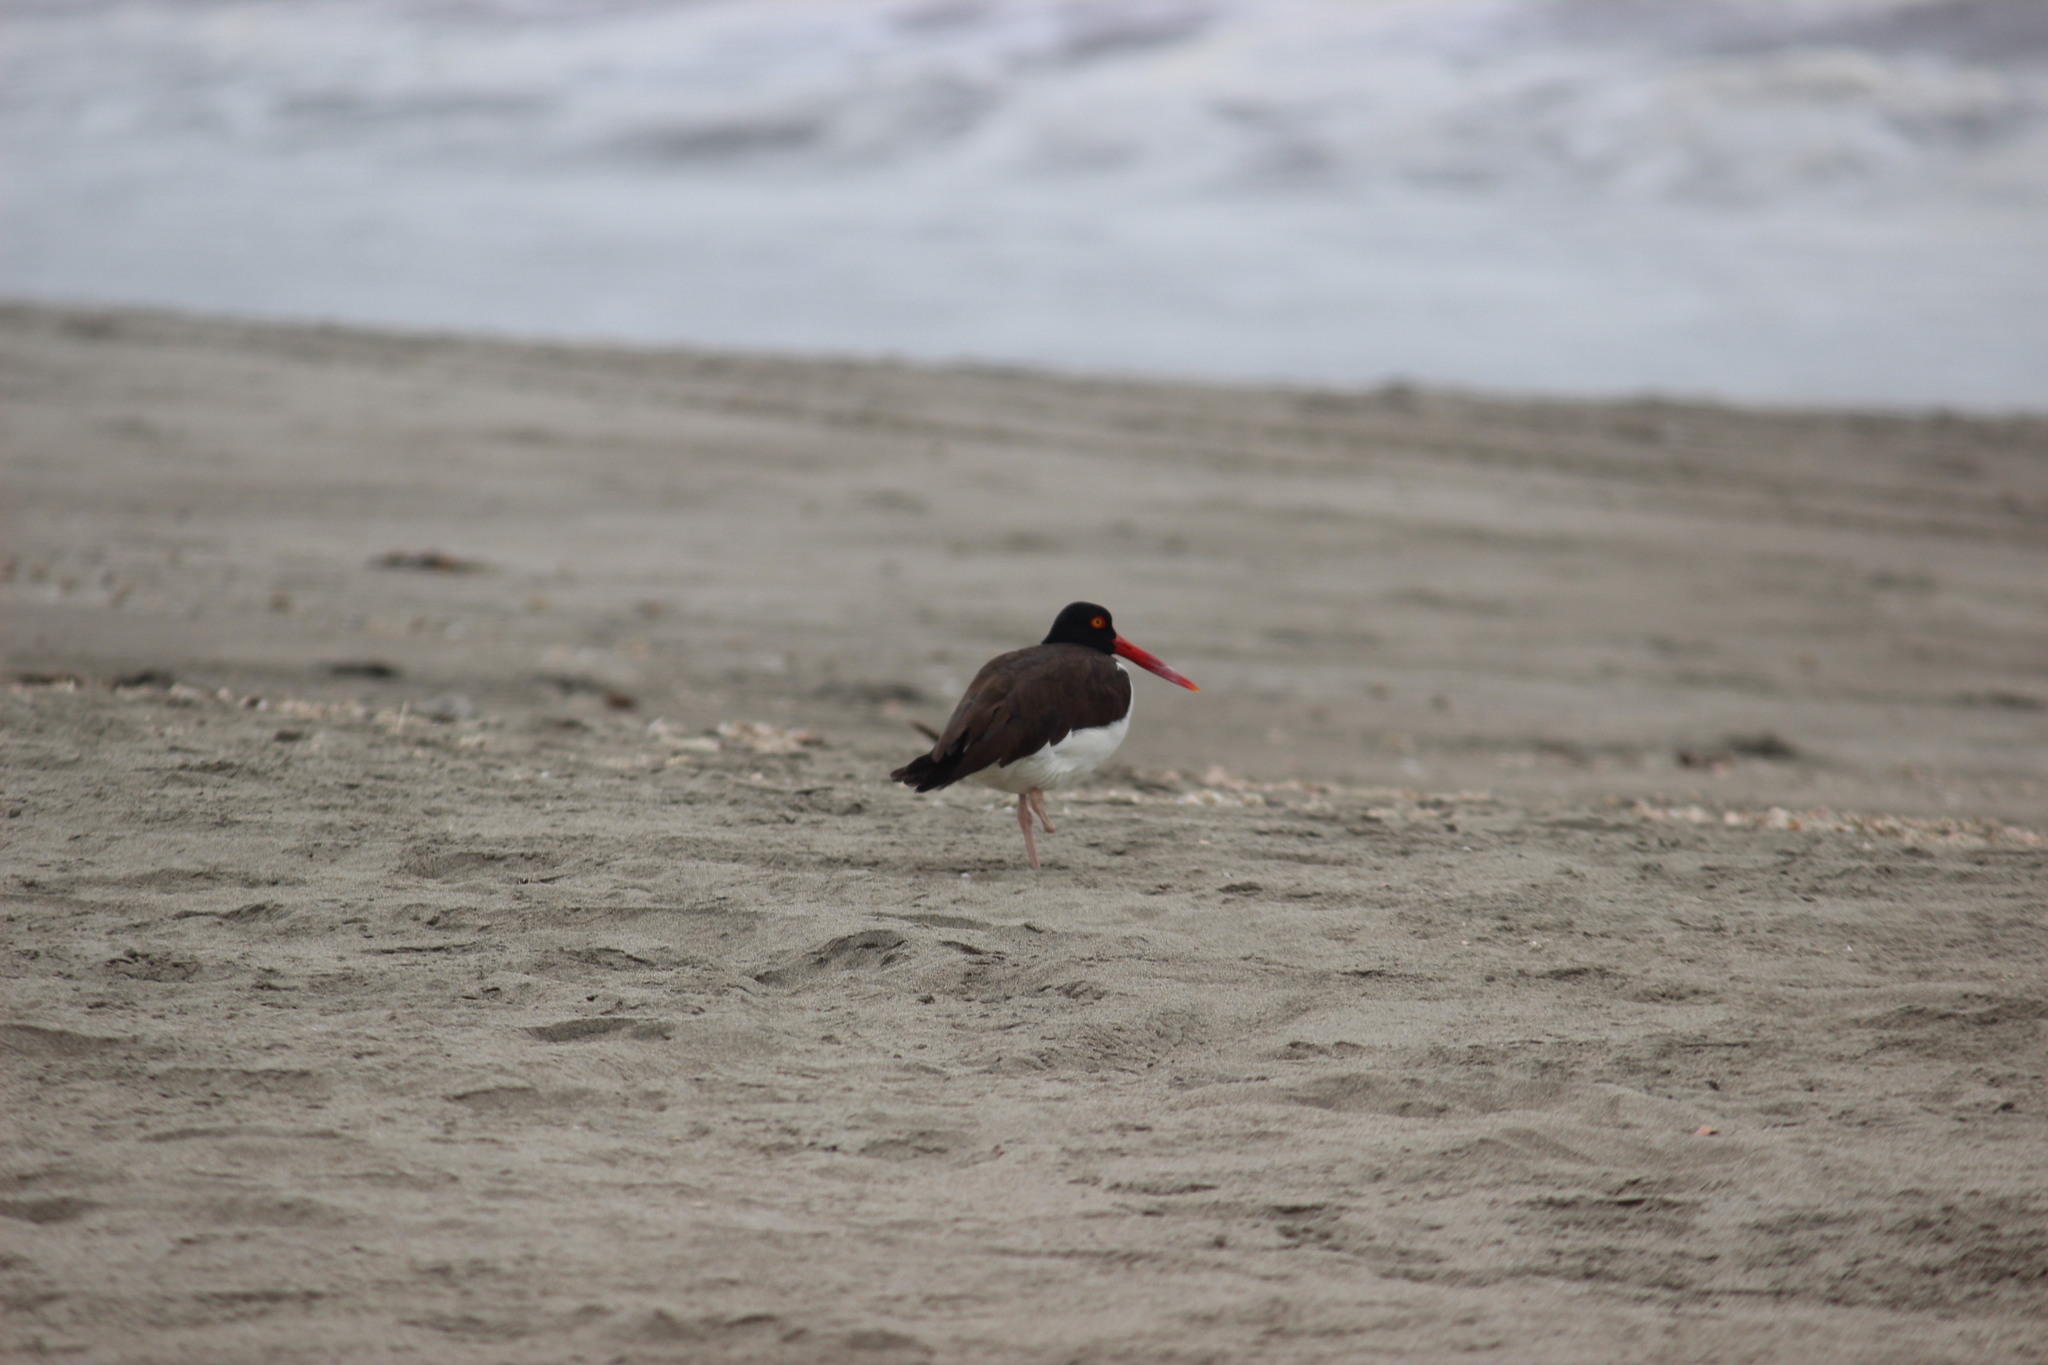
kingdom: Animalia
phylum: Chordata
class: Aves
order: Charadriiformes
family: Haematopodidae
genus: Haematopus
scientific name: Haematopus palliatus
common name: American oystercatcher
